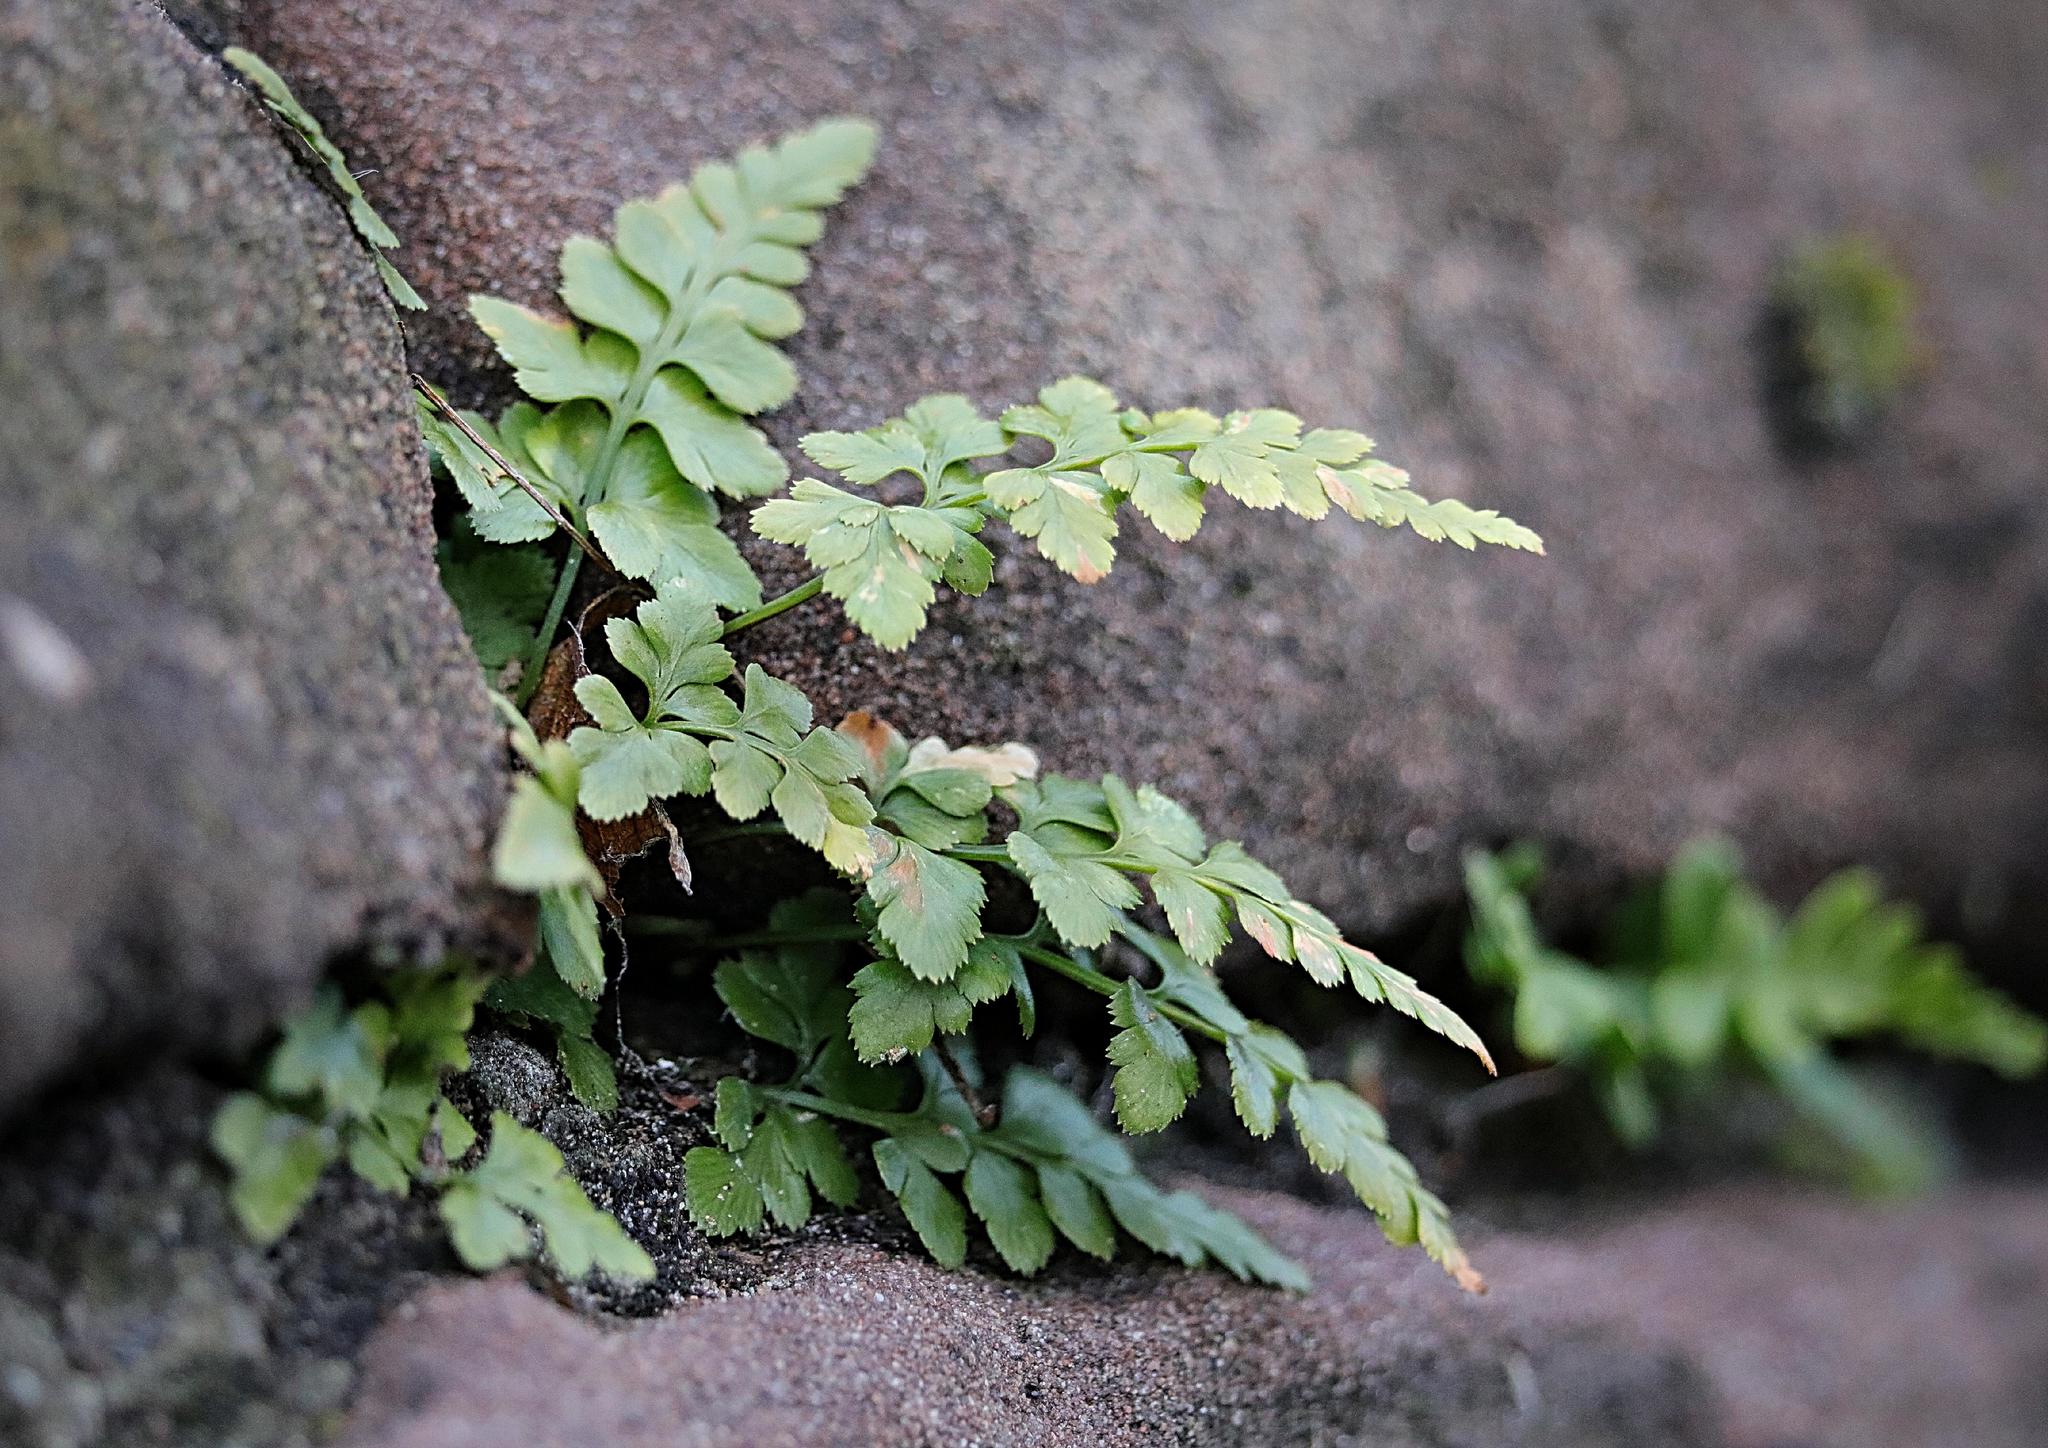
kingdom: Plantae
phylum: Tracheophyta
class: Polypodiopsida
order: Polypodiales
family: Aspleniaceae
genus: Asplenium
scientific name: Asplenium adiantum-nigrum
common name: Black spleenwort
